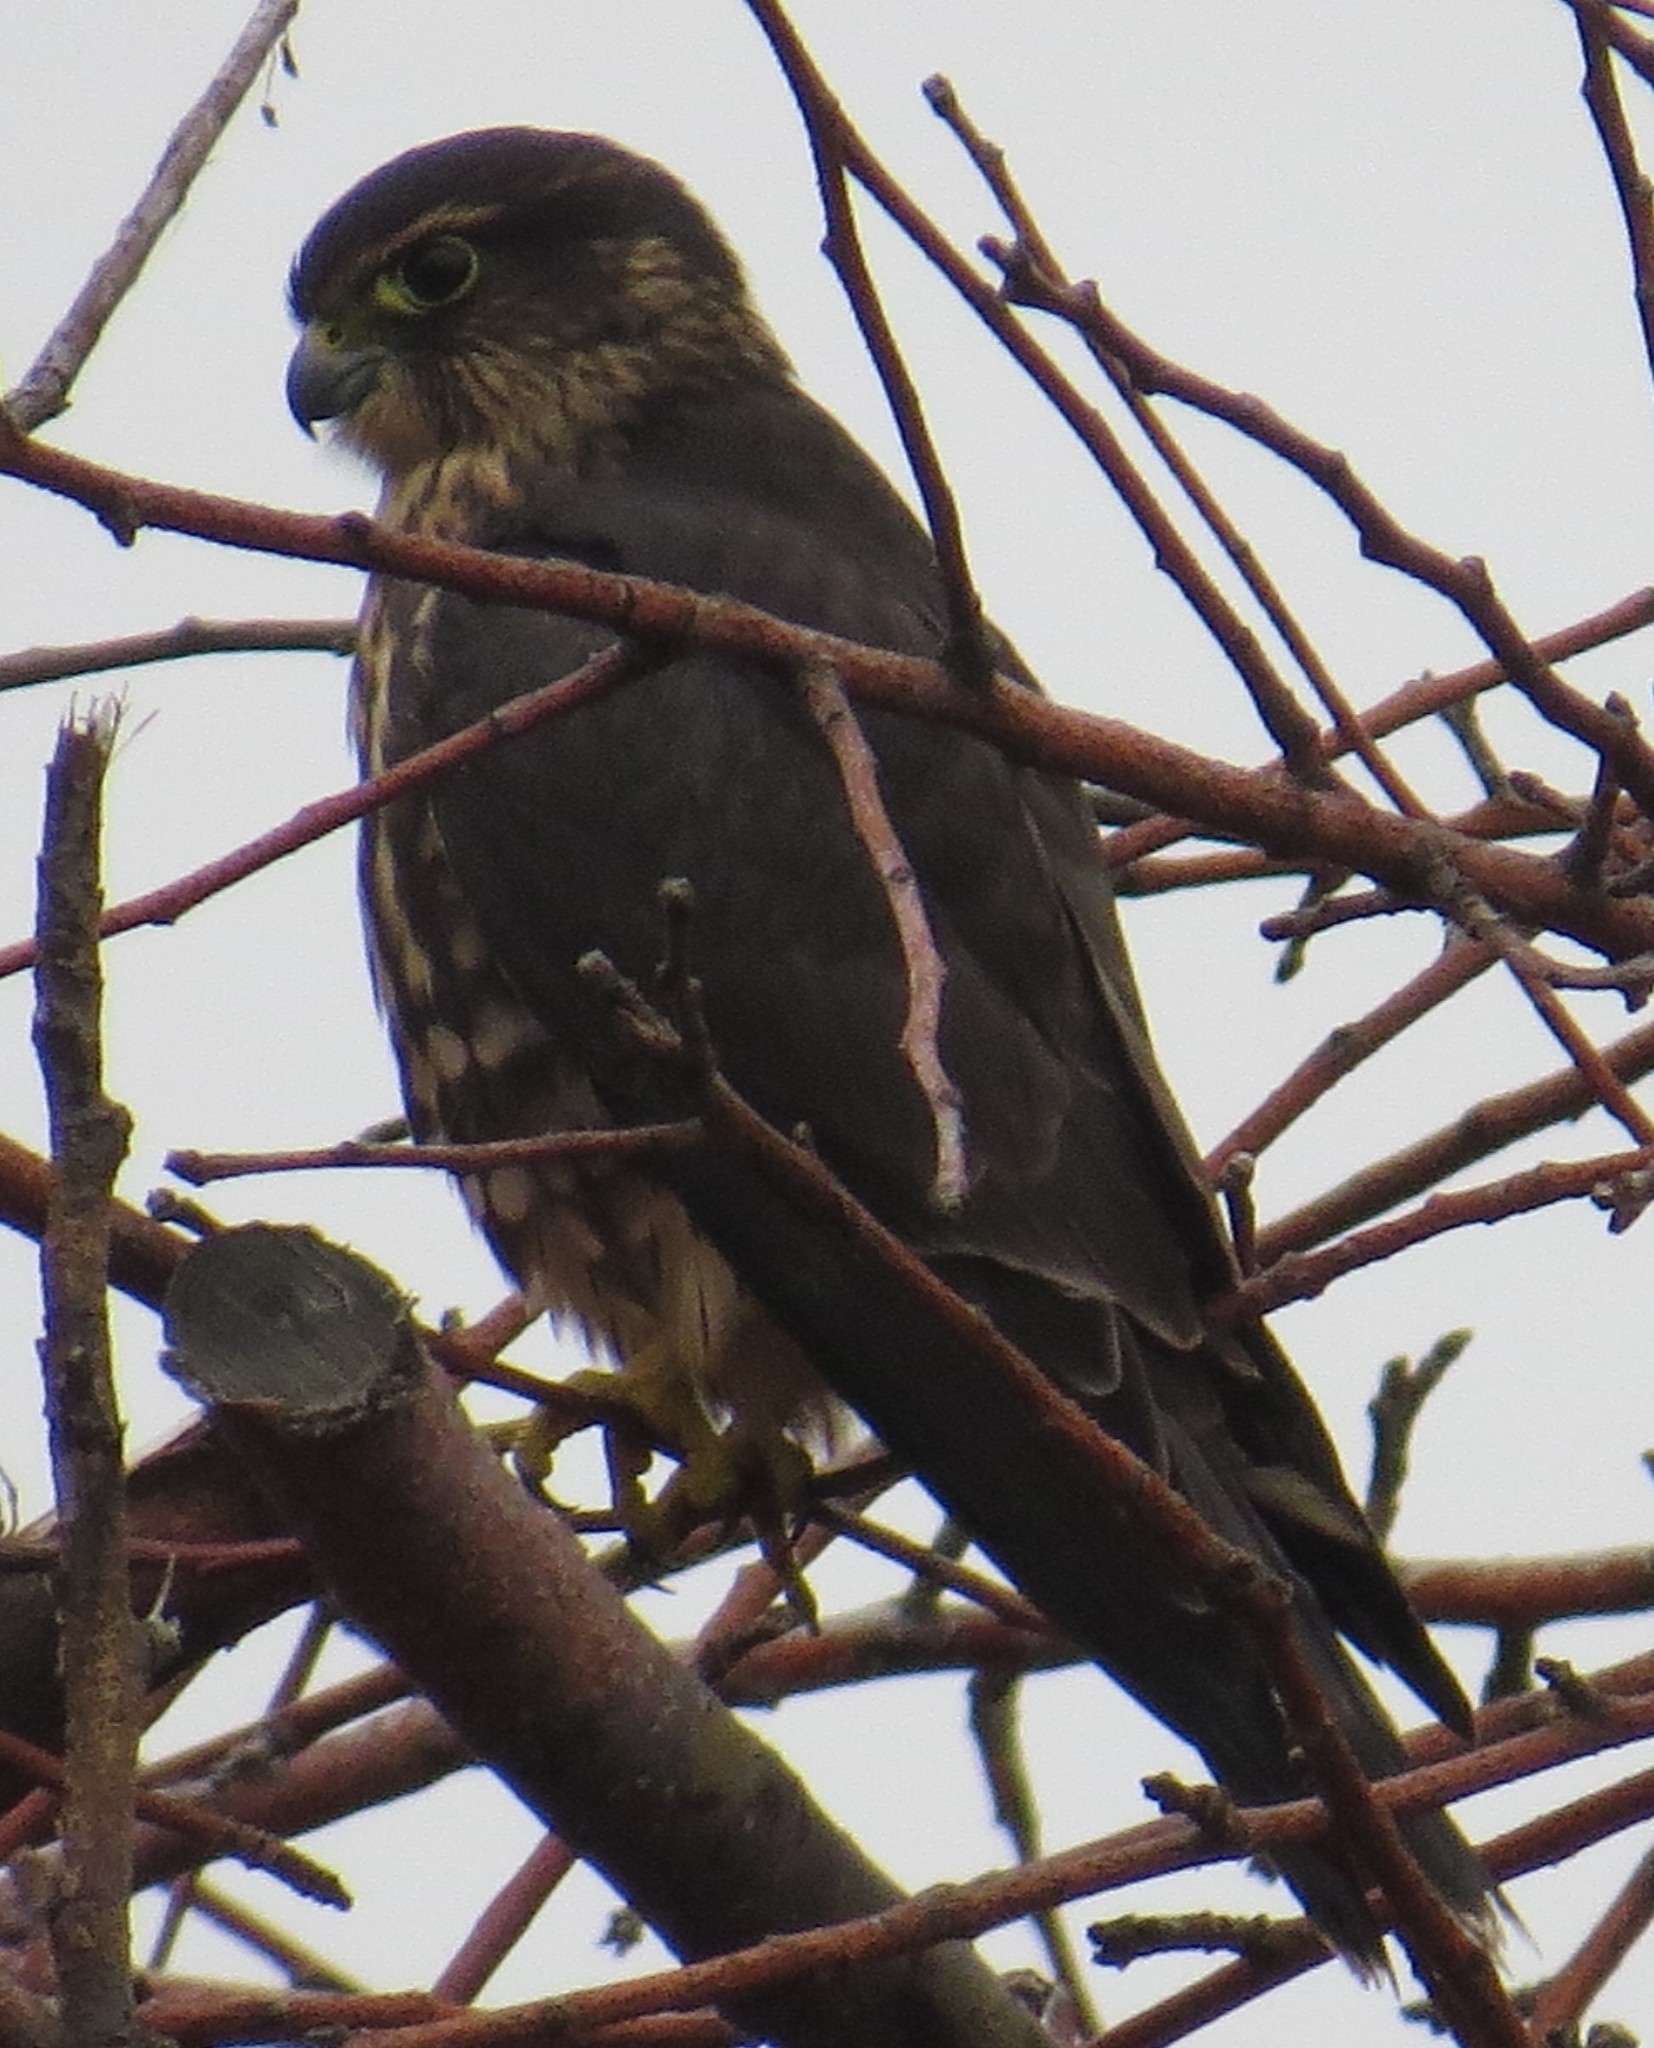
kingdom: Animalia
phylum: Chordata
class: Aves
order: Falconiformes
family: Falconidae
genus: Falco
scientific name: Falco columbarius
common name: Merlin
